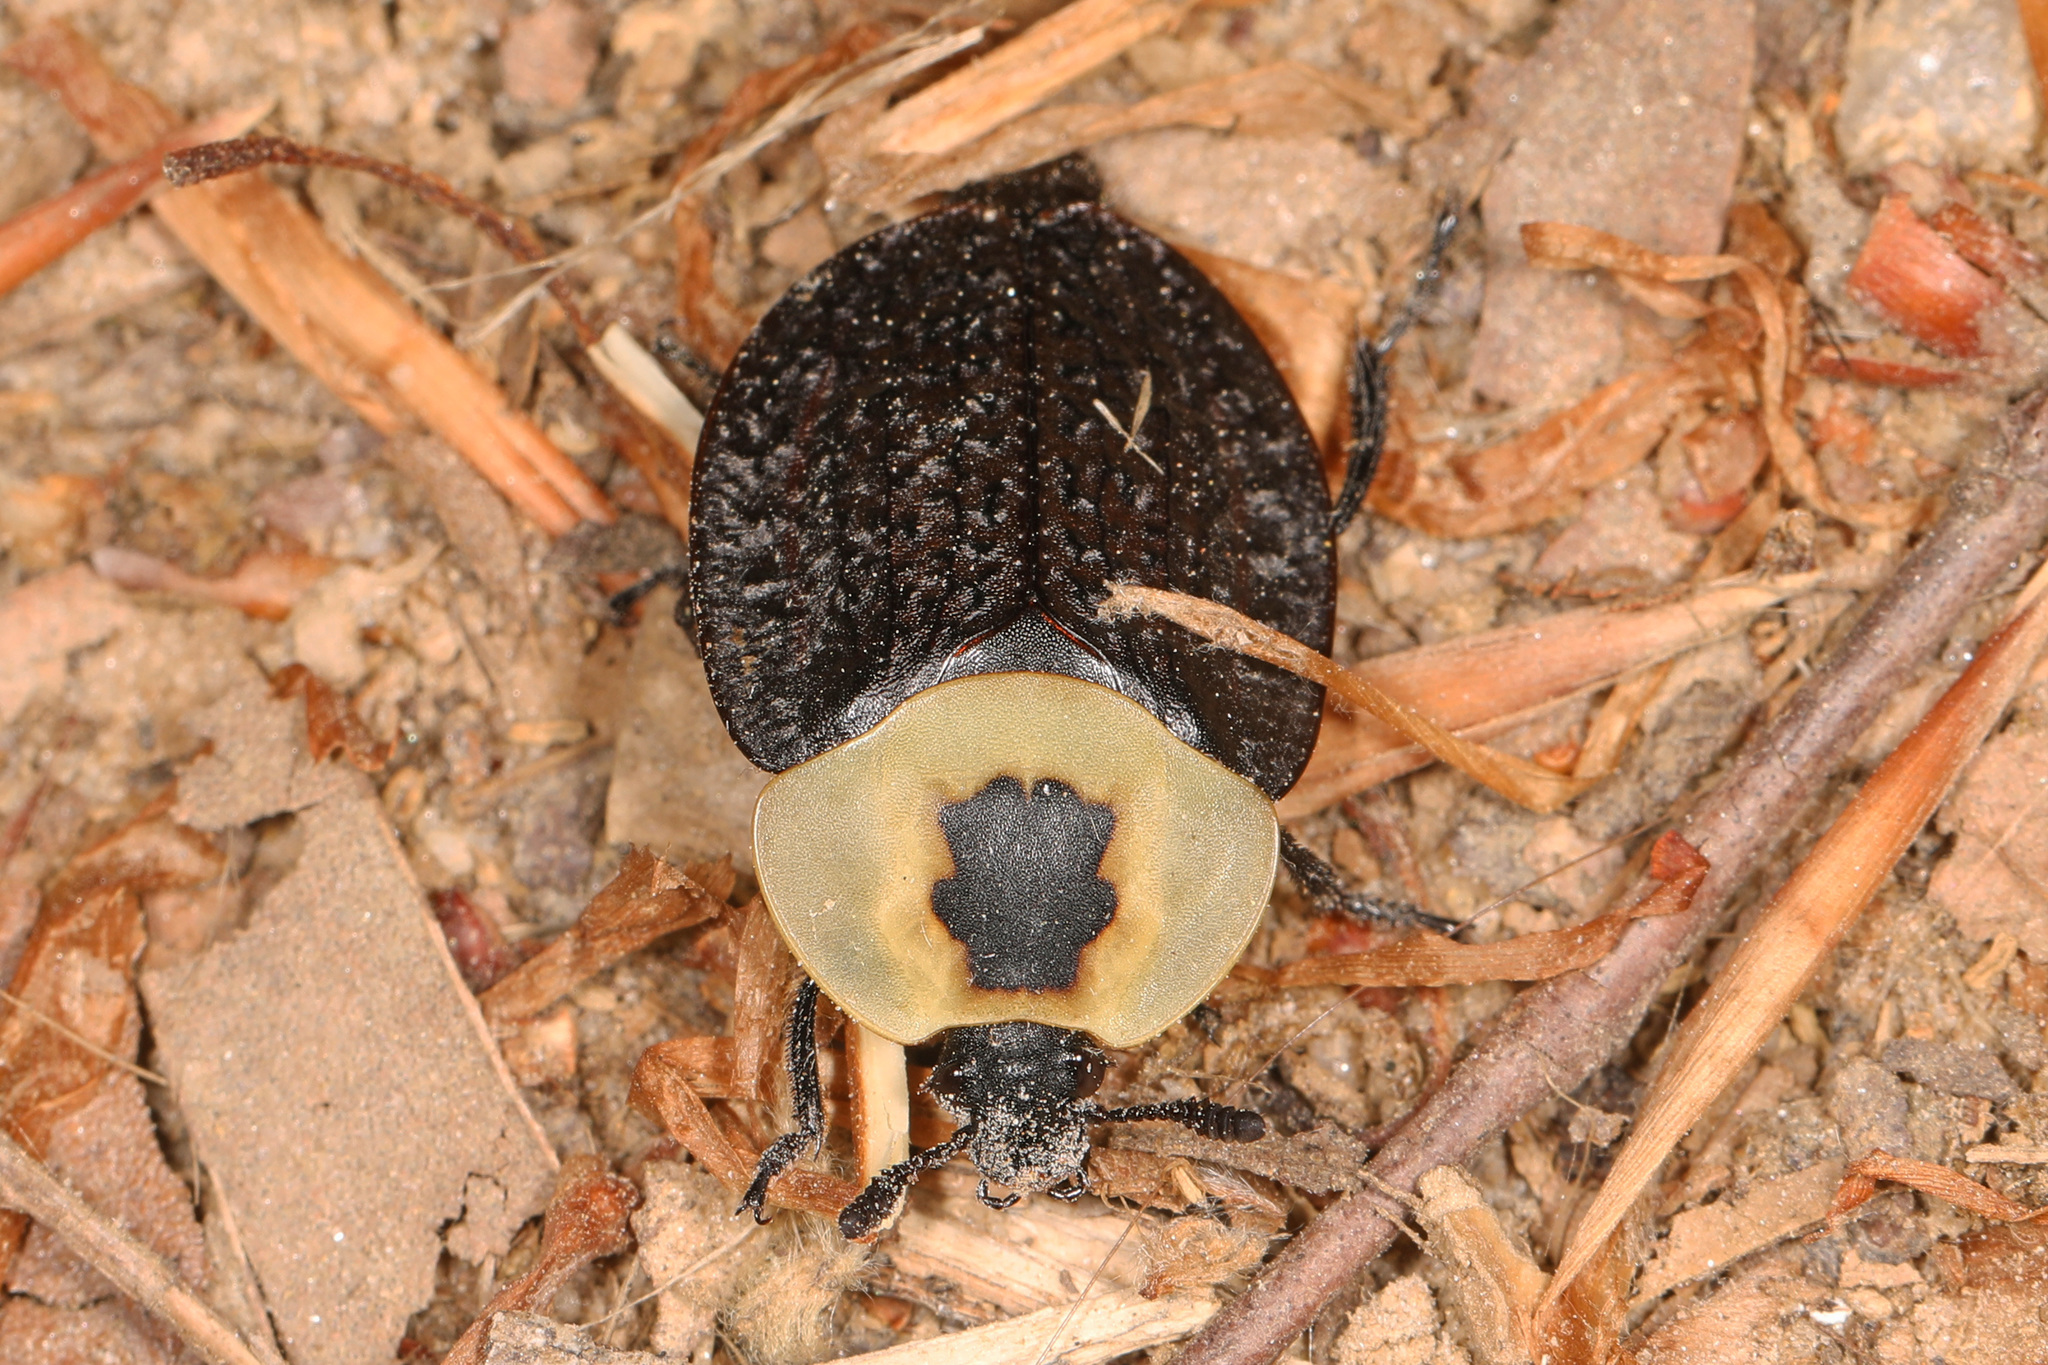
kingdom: Animalia
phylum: Arthropoda
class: Insecta
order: Coleoptera
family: Staphylinidae
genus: Necrophila
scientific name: Necrophila americana
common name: American carrion beetle
